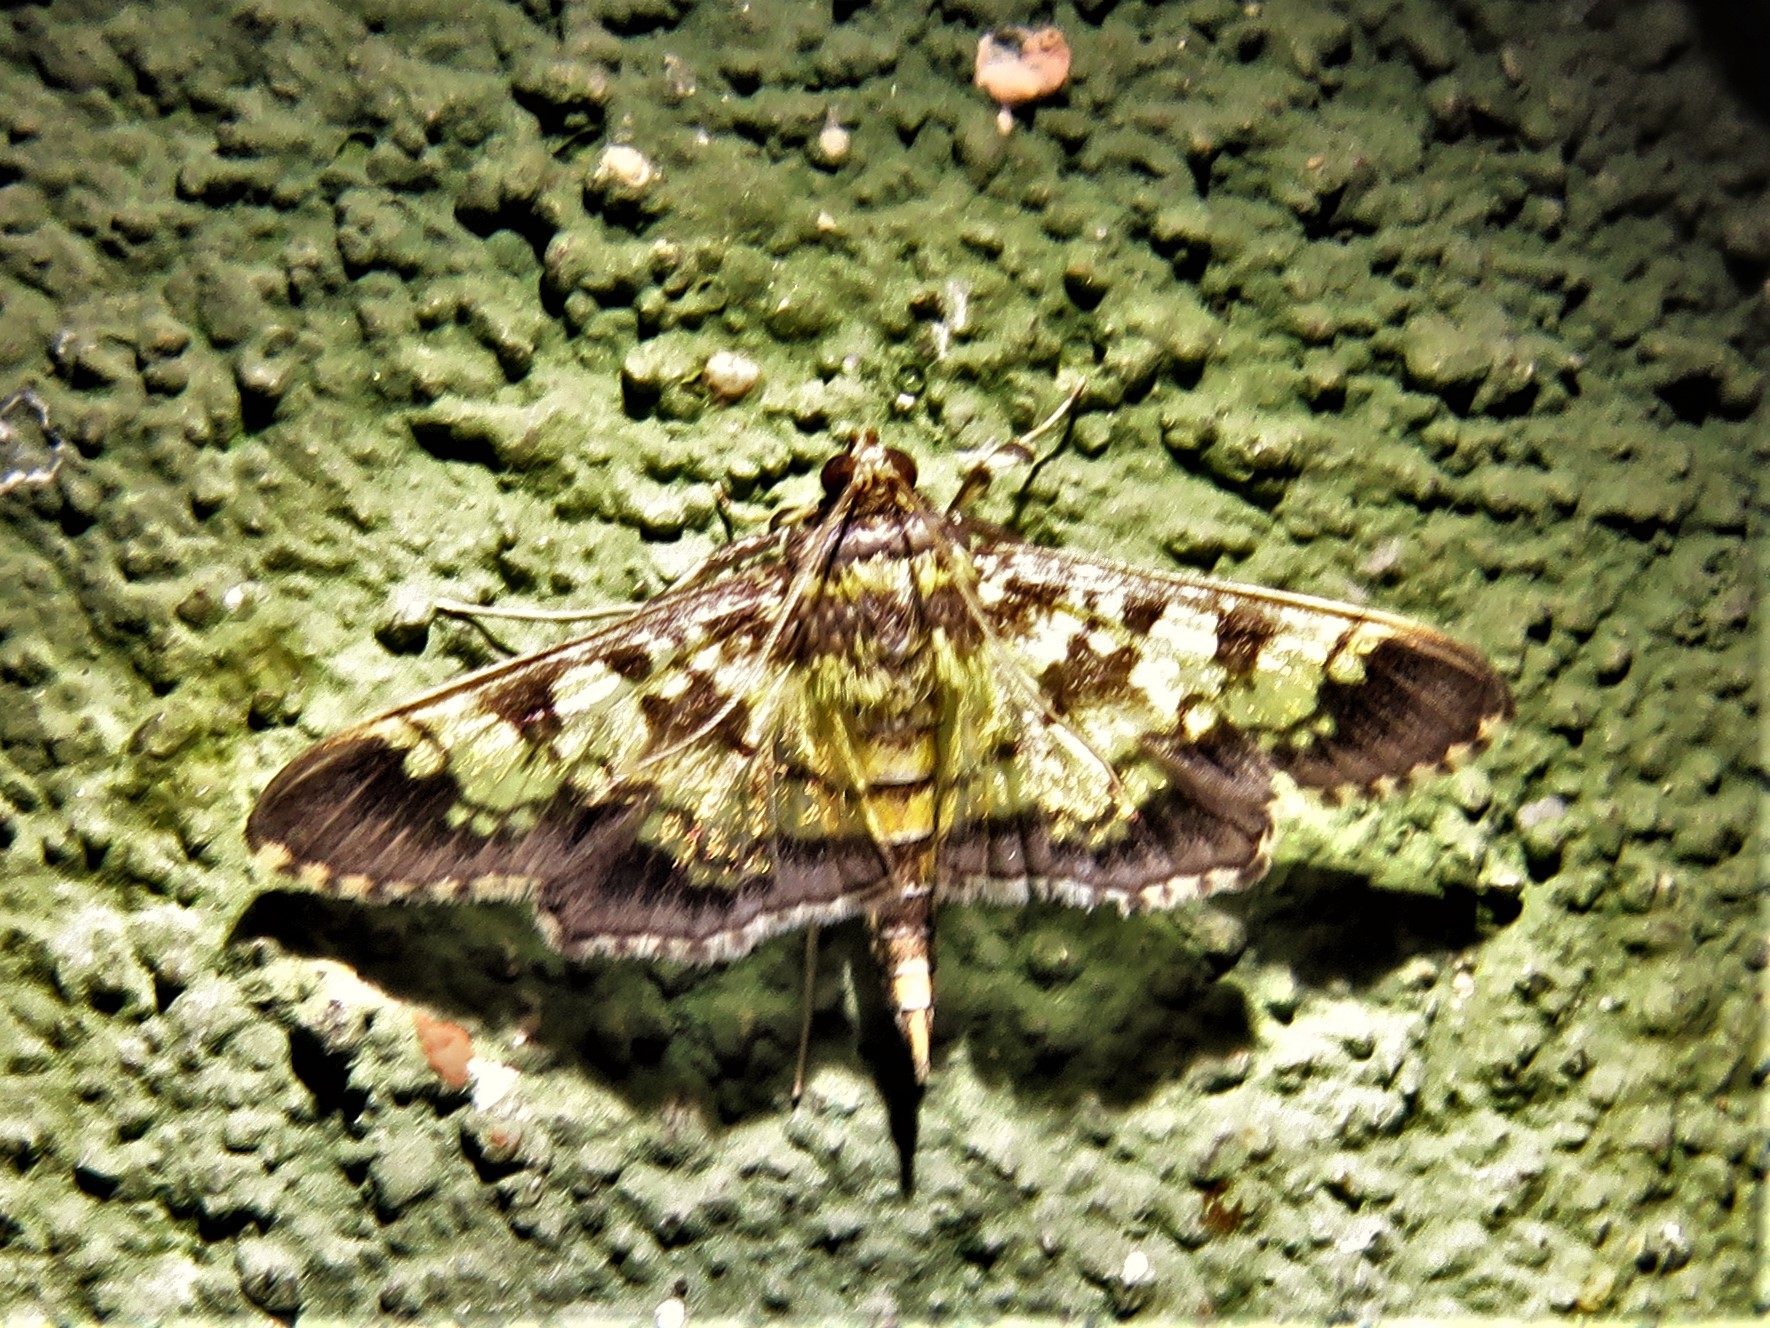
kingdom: Animalia
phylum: Arthropoda
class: Insecta
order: Lepidoptera
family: Crambidae
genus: Cryptographis
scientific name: Cryptographis elealis
